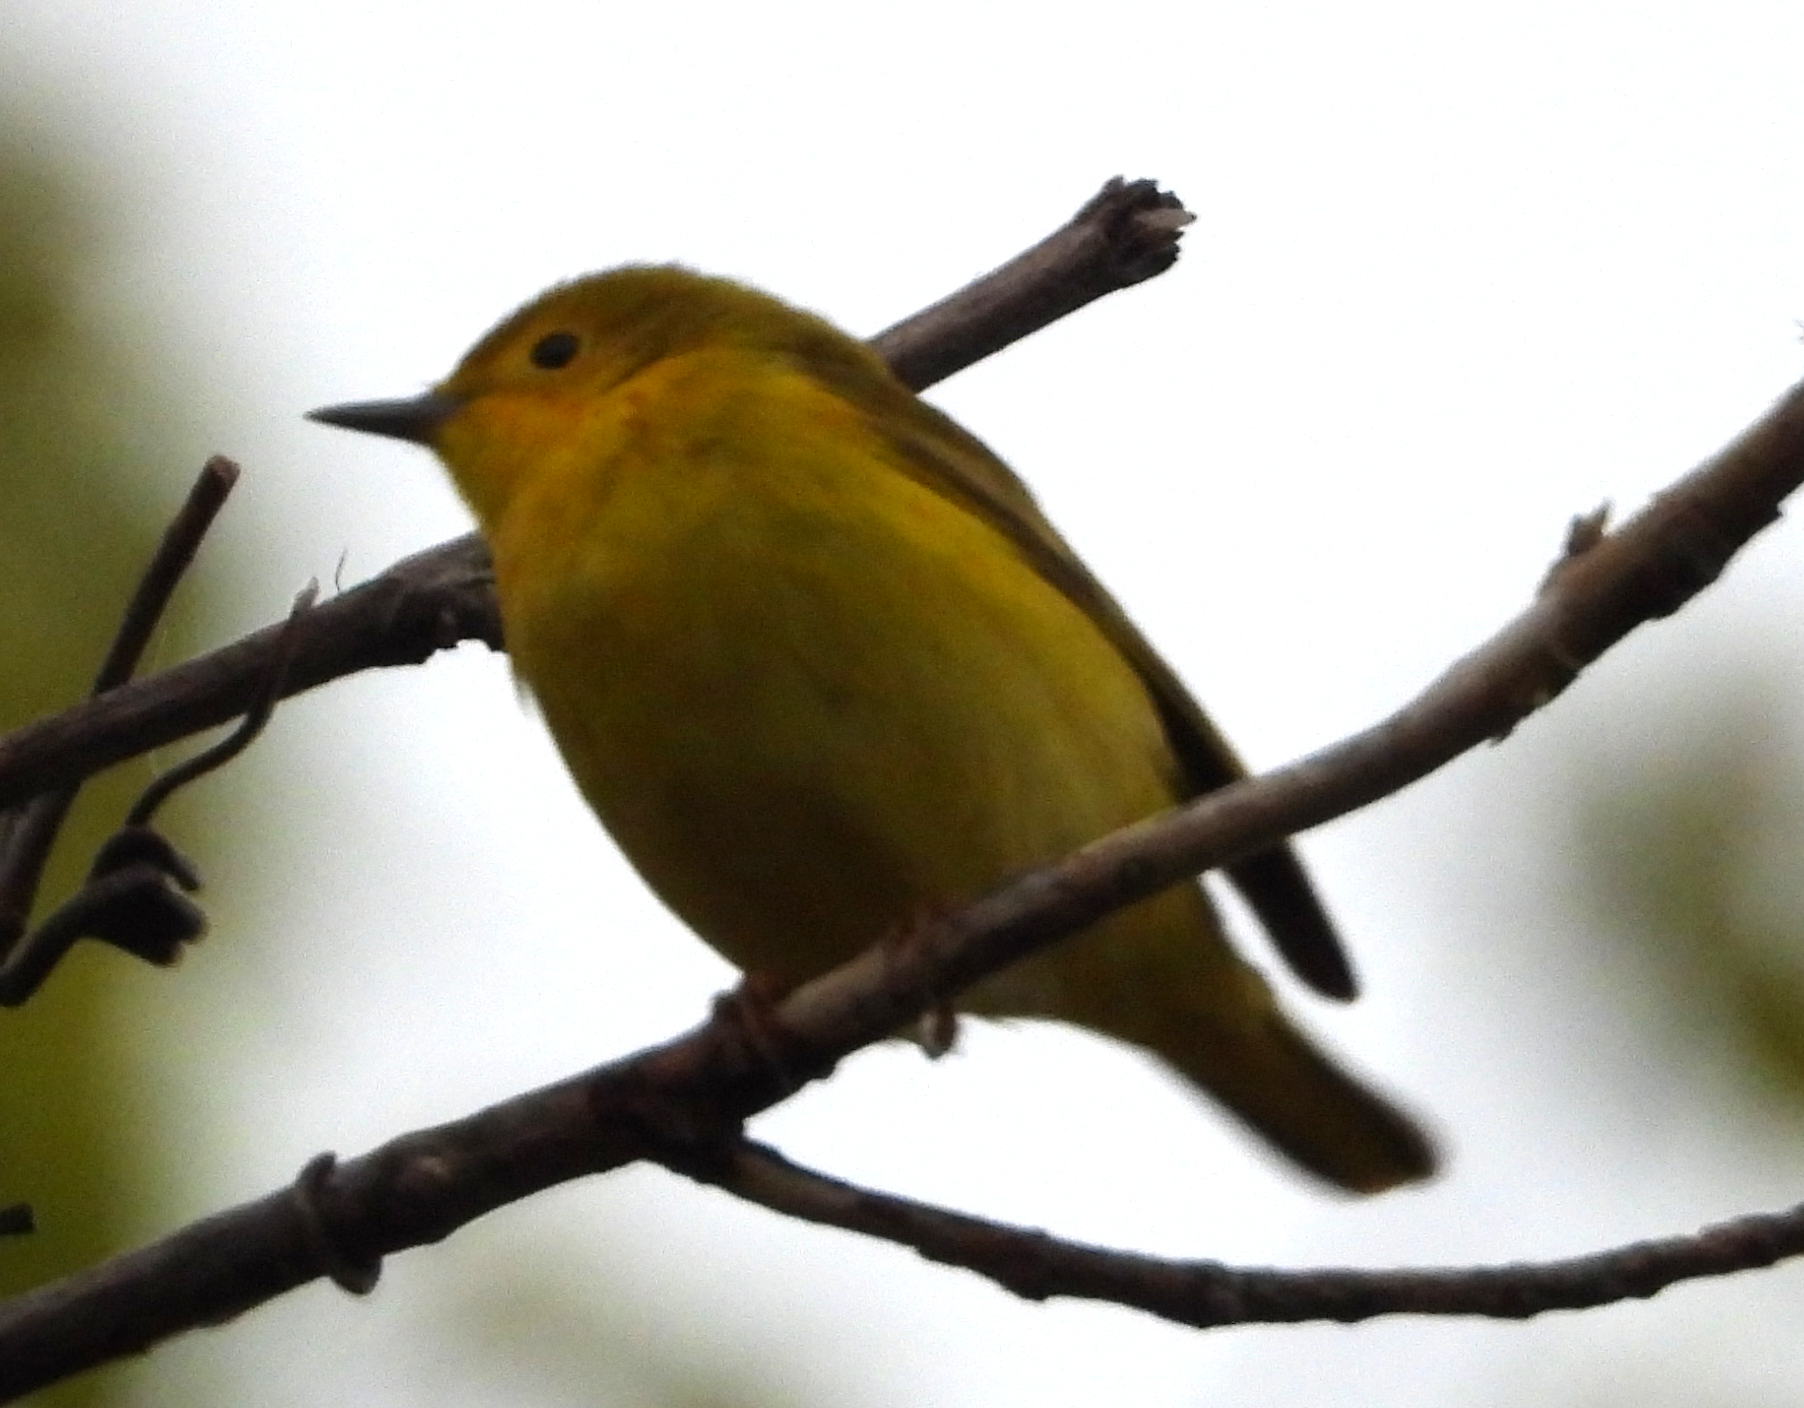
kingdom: Animalia
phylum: Chordata
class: Aves
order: Passeriformes
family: Parulidae
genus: Setophaga
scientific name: Setophaga petechia
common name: Yellow warbler
